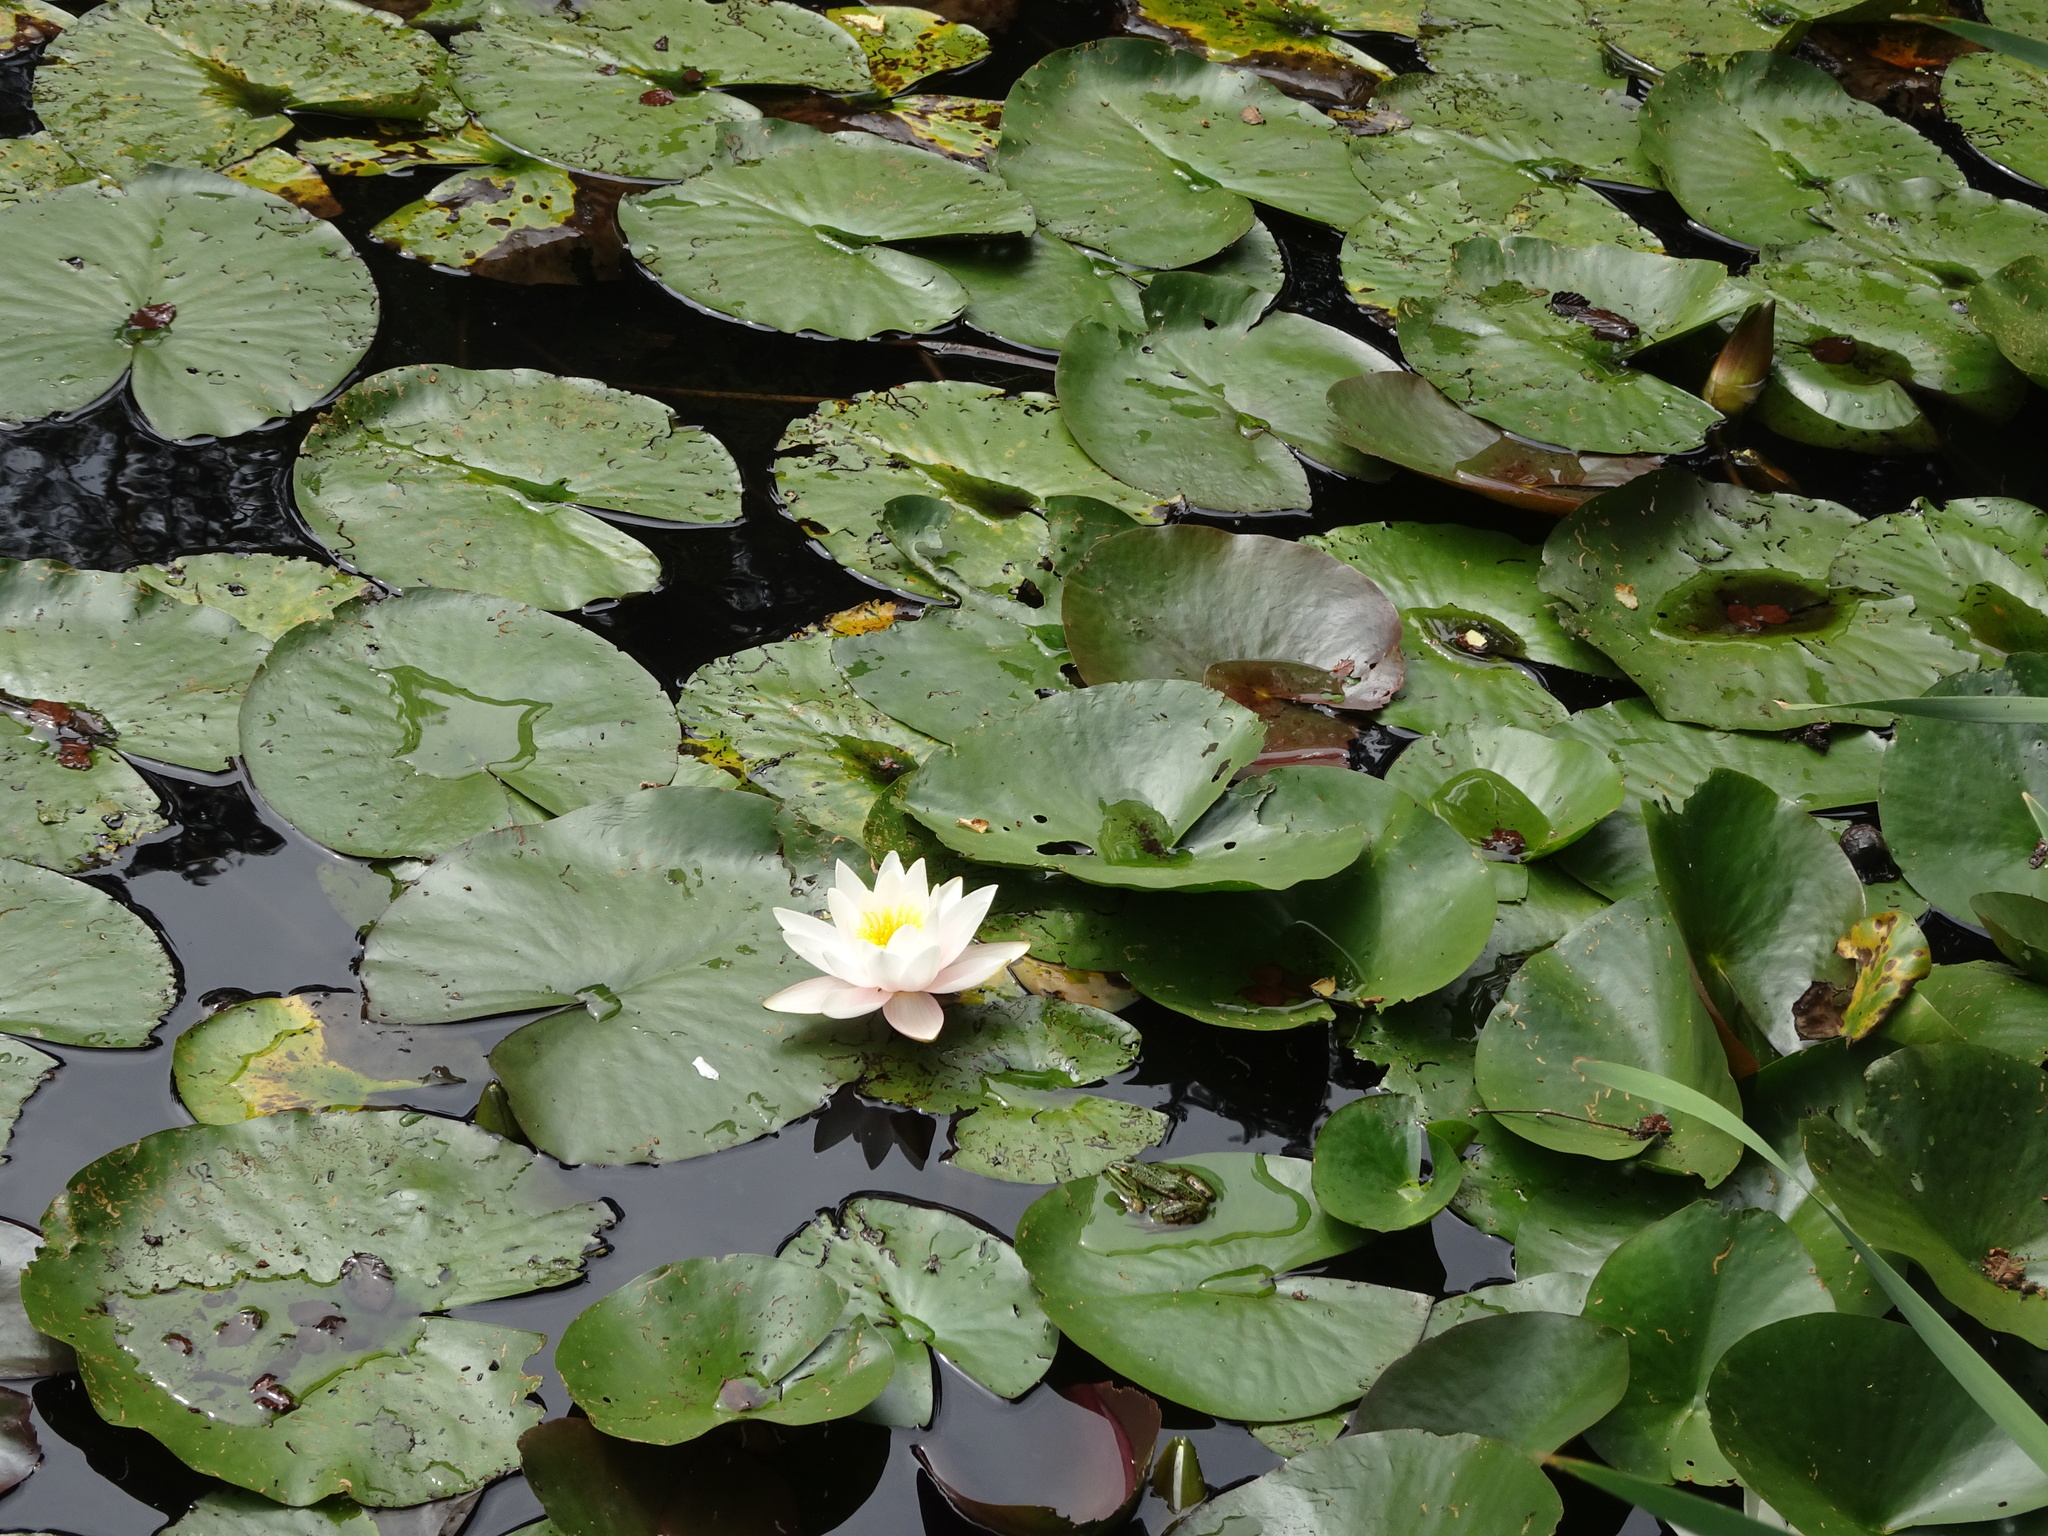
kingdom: Plantae
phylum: Tracheophyta
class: Magnoliopsida
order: Nymphaeales
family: Nymphaeaceae
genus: Nymphaea
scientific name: Nymphaea alba
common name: White water-lily
